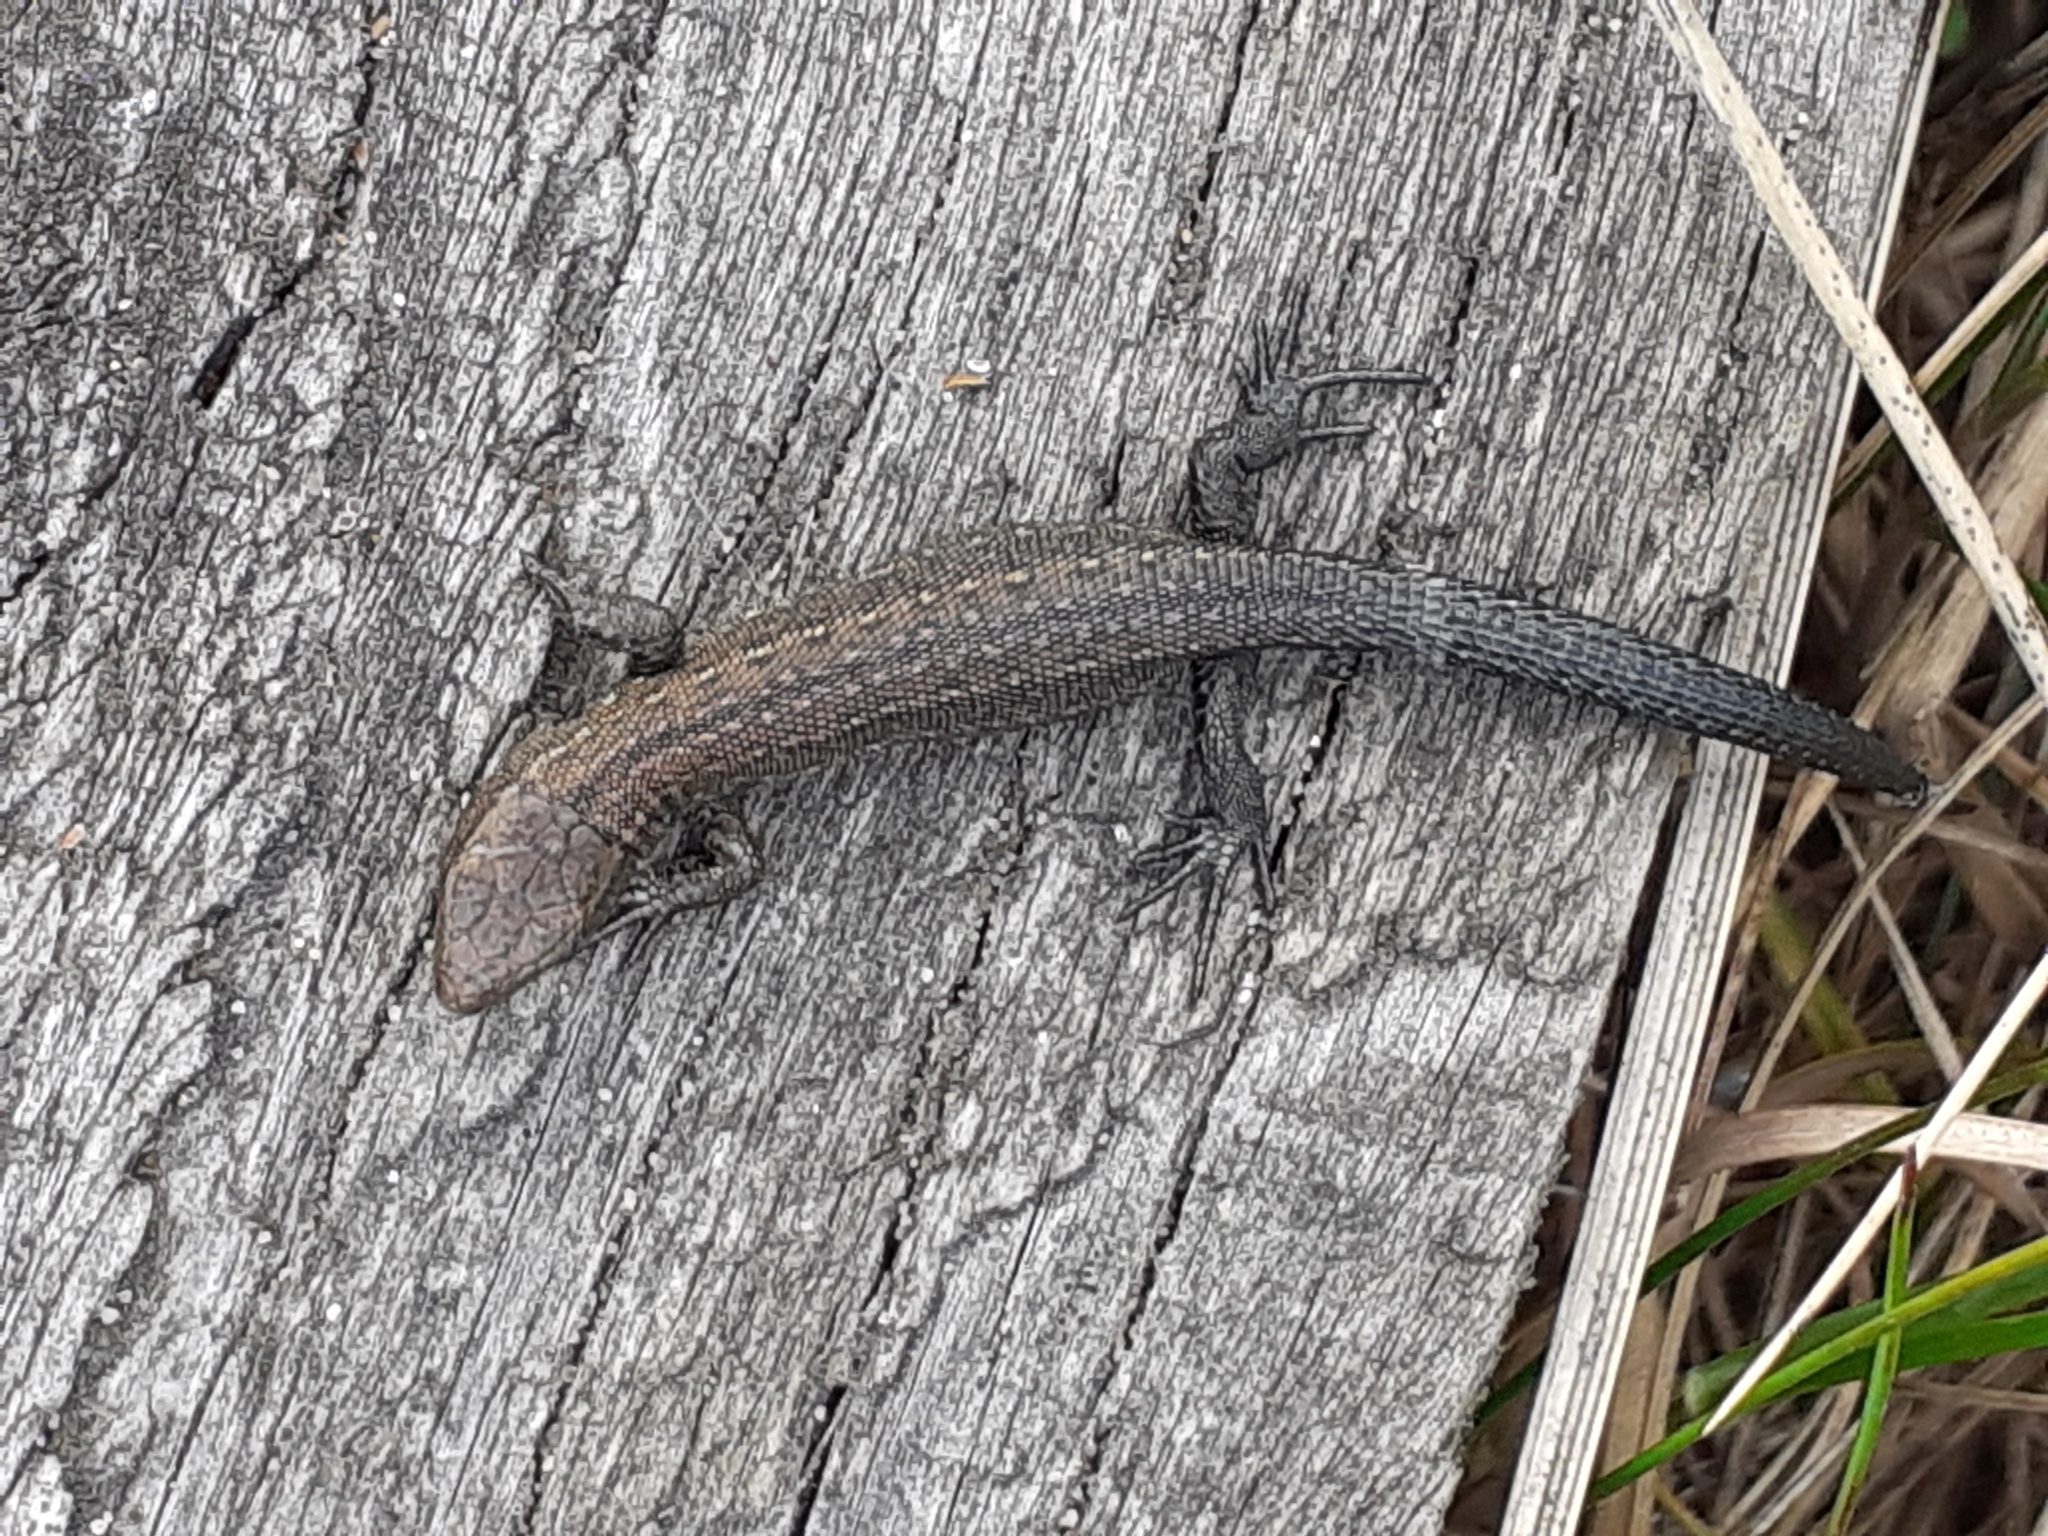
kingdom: Animalia
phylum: Chordata
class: Squamata
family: Lacertidae
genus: Zootoca
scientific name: Zootoca vivipara
